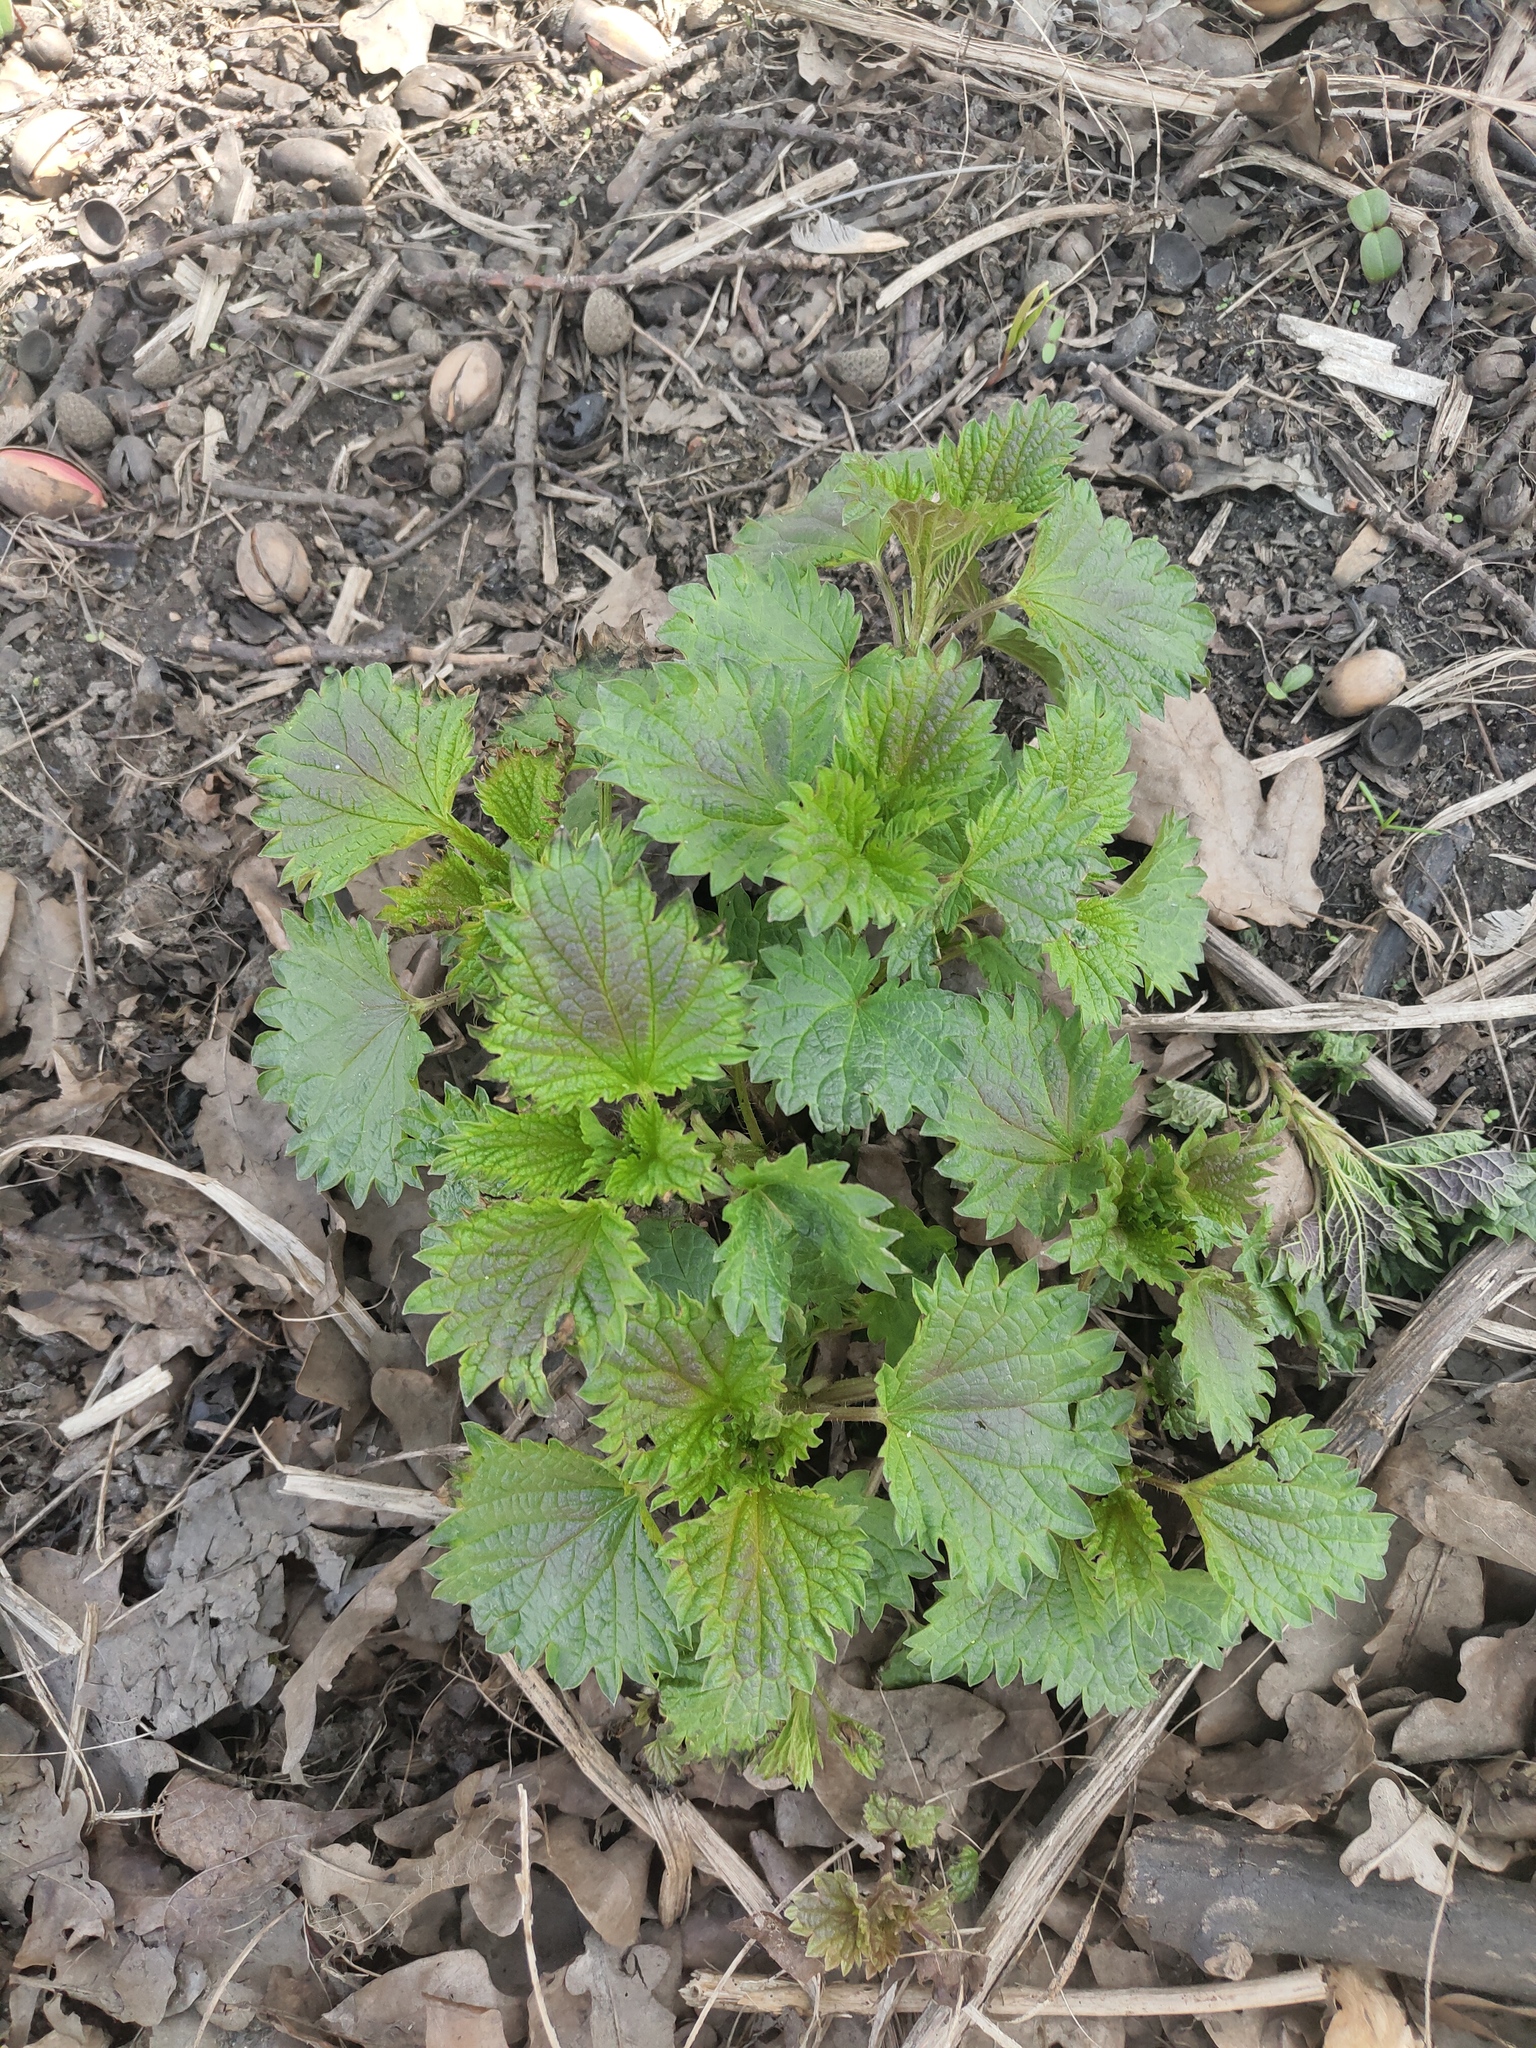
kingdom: Plantae
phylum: Tracheophyta
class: Magnoliopsida
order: Rosales
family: Urticaceae
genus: Urtica
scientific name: Urtica dioica
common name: Common nettle
